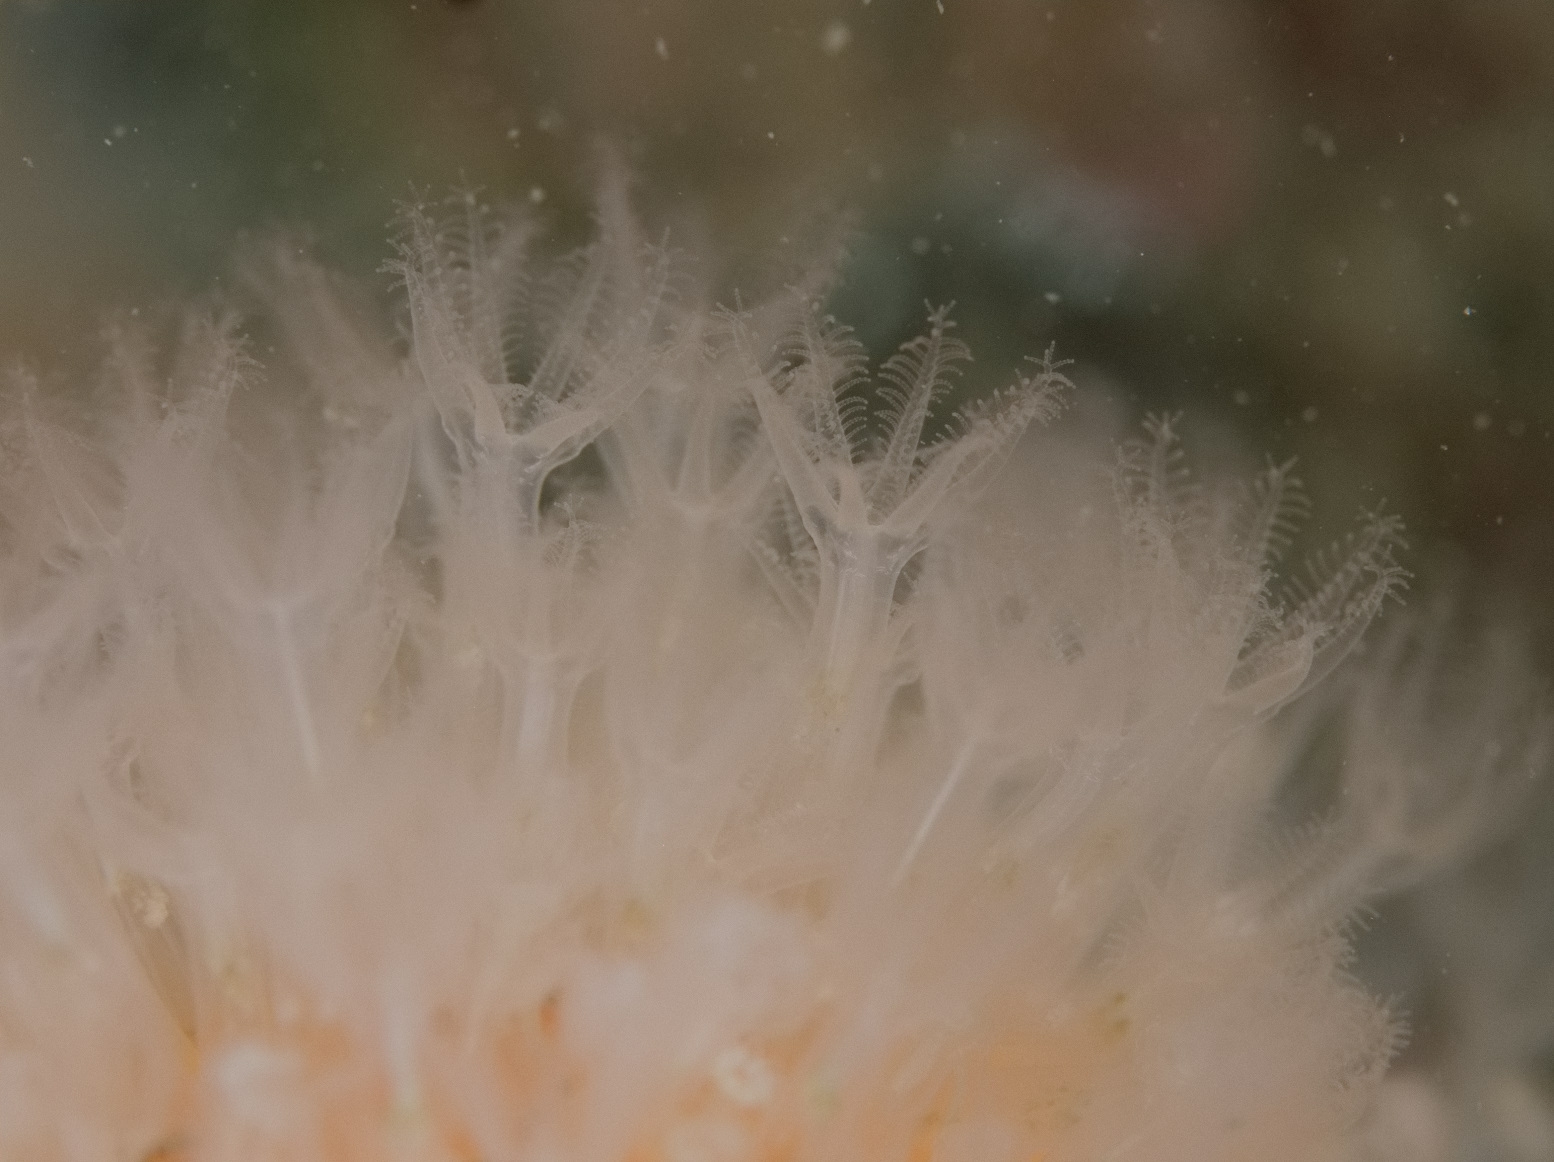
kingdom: Animalia
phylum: Cnidaria
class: Anthozoa
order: Malacalcyonacea
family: Alcyoniidae
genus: Alcyonium
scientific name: Alcyonium digitatum
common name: Dead man's fingers
